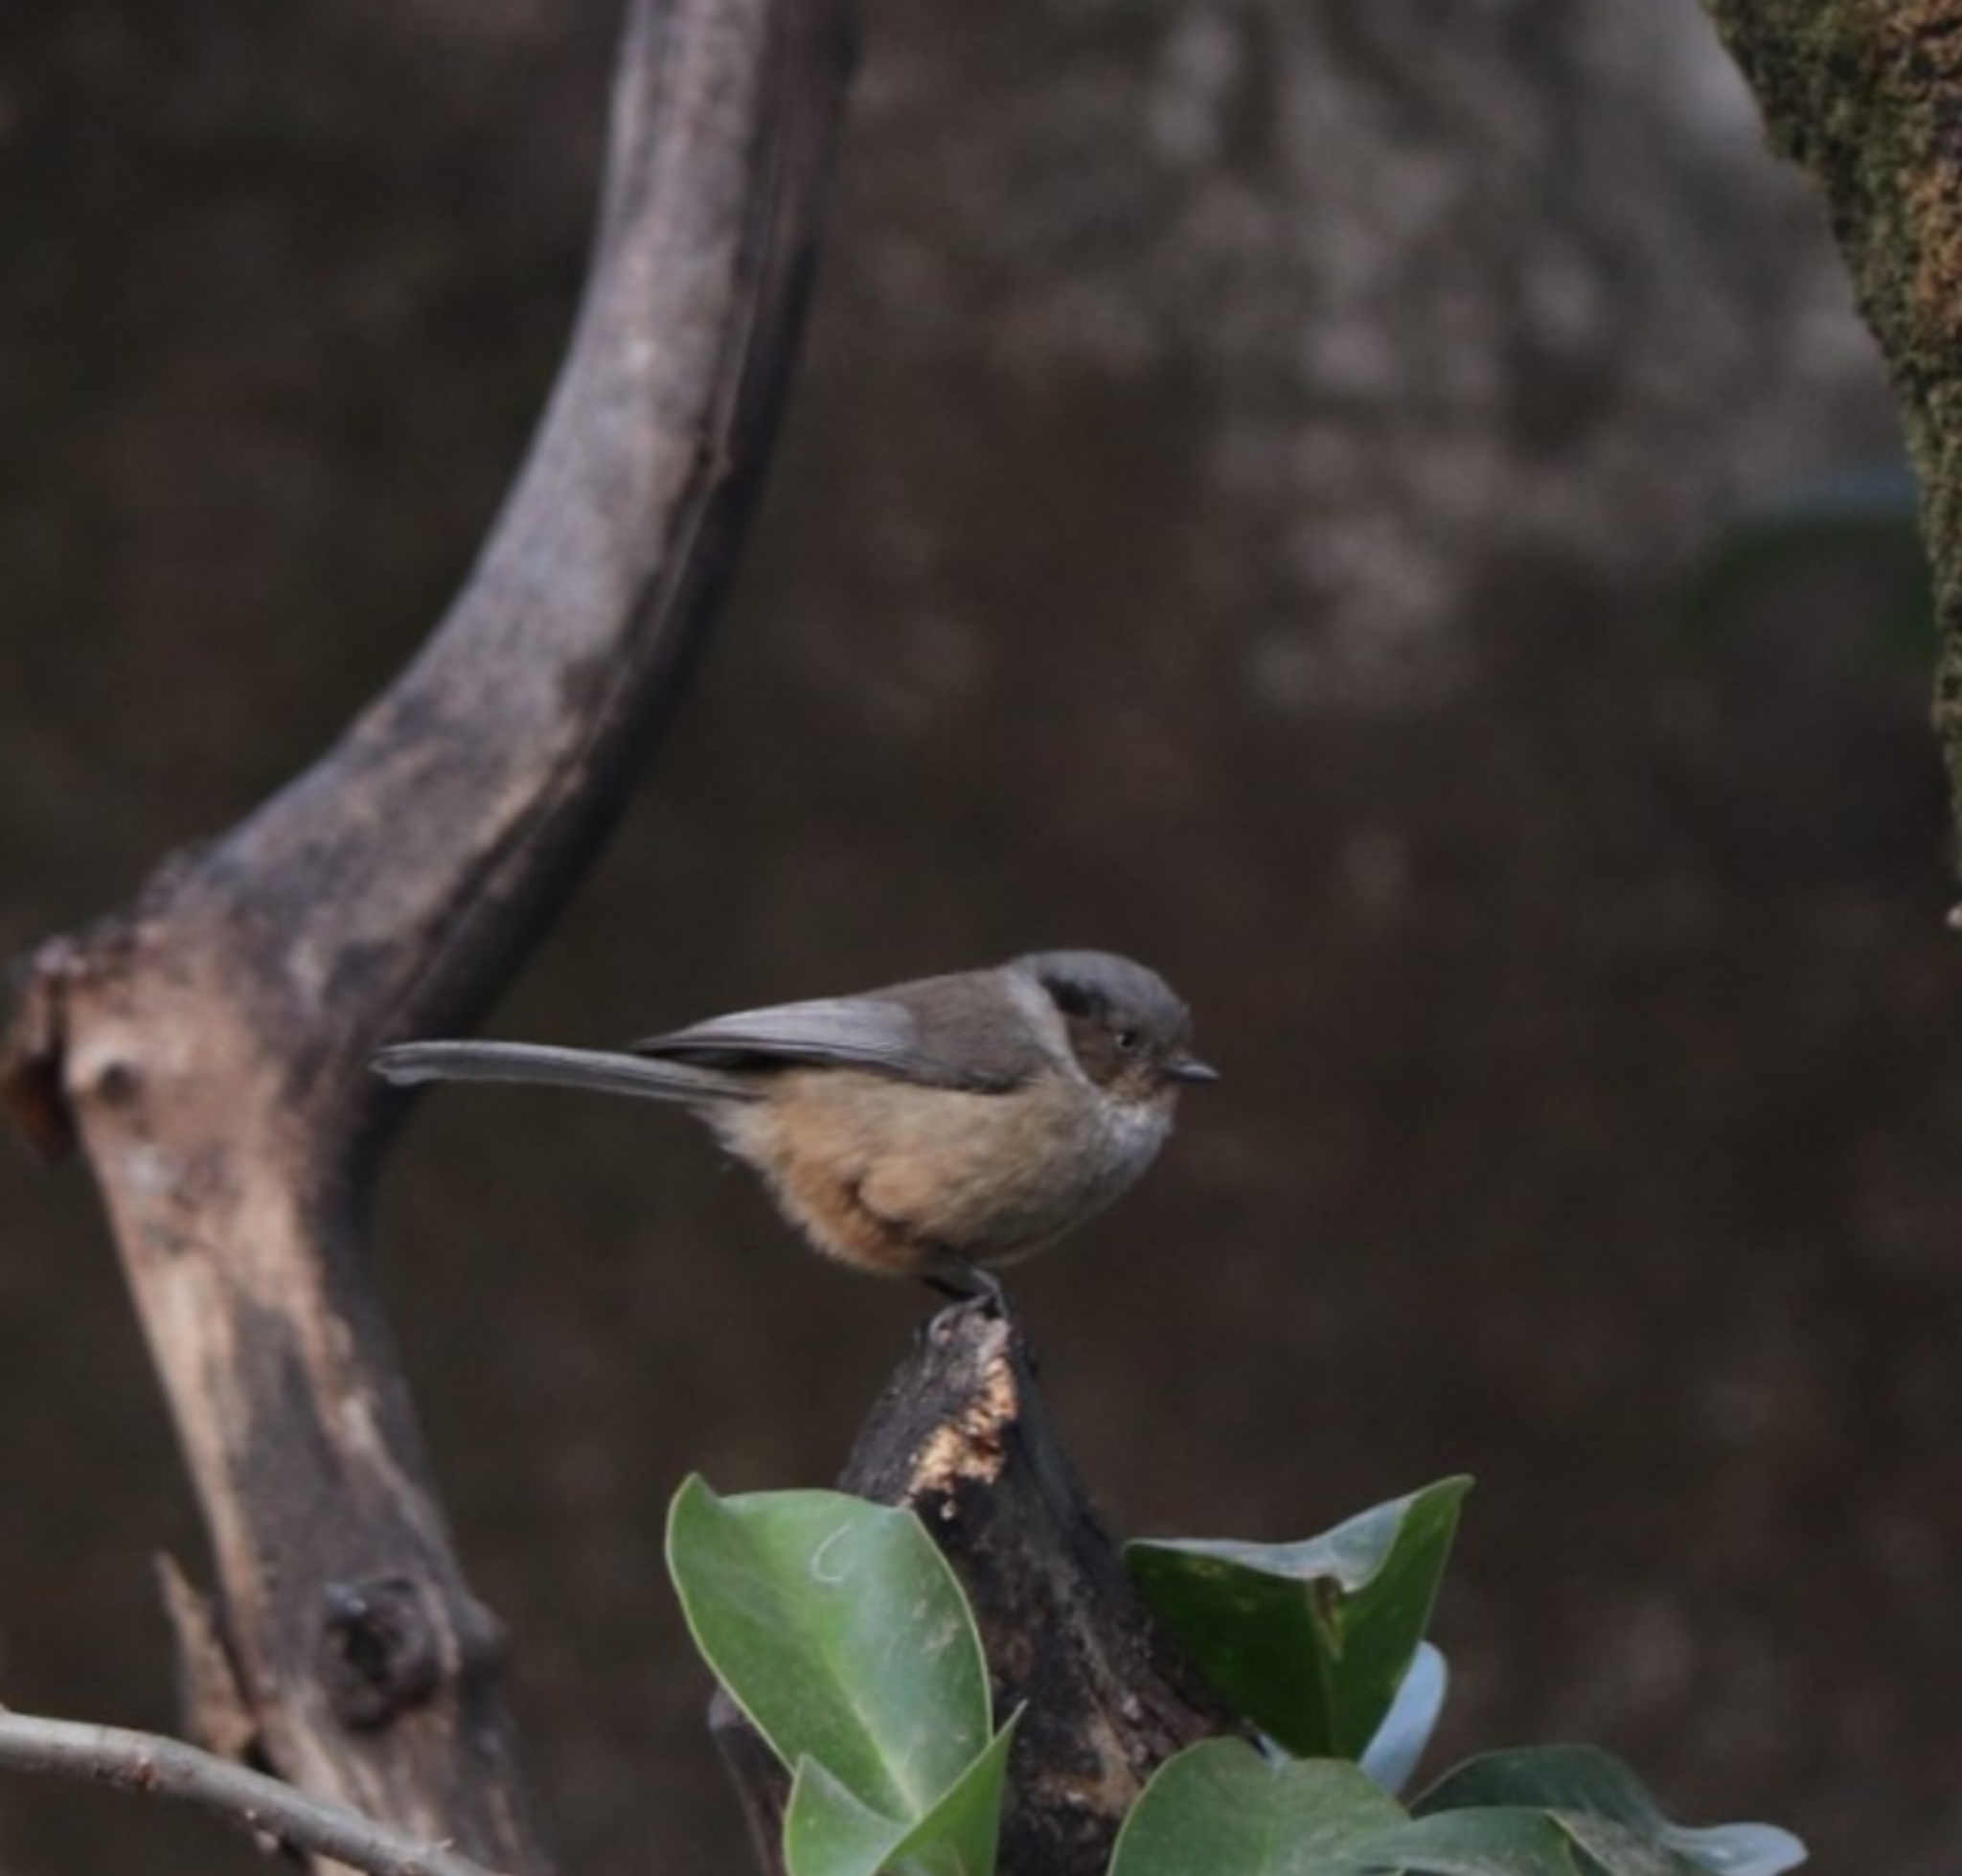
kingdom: Animalia
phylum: Chordata
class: Aves
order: Passeriformes
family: Aegithalidae
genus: Psaltriparus
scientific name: Psaltriparus minimus
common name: American bushtit
